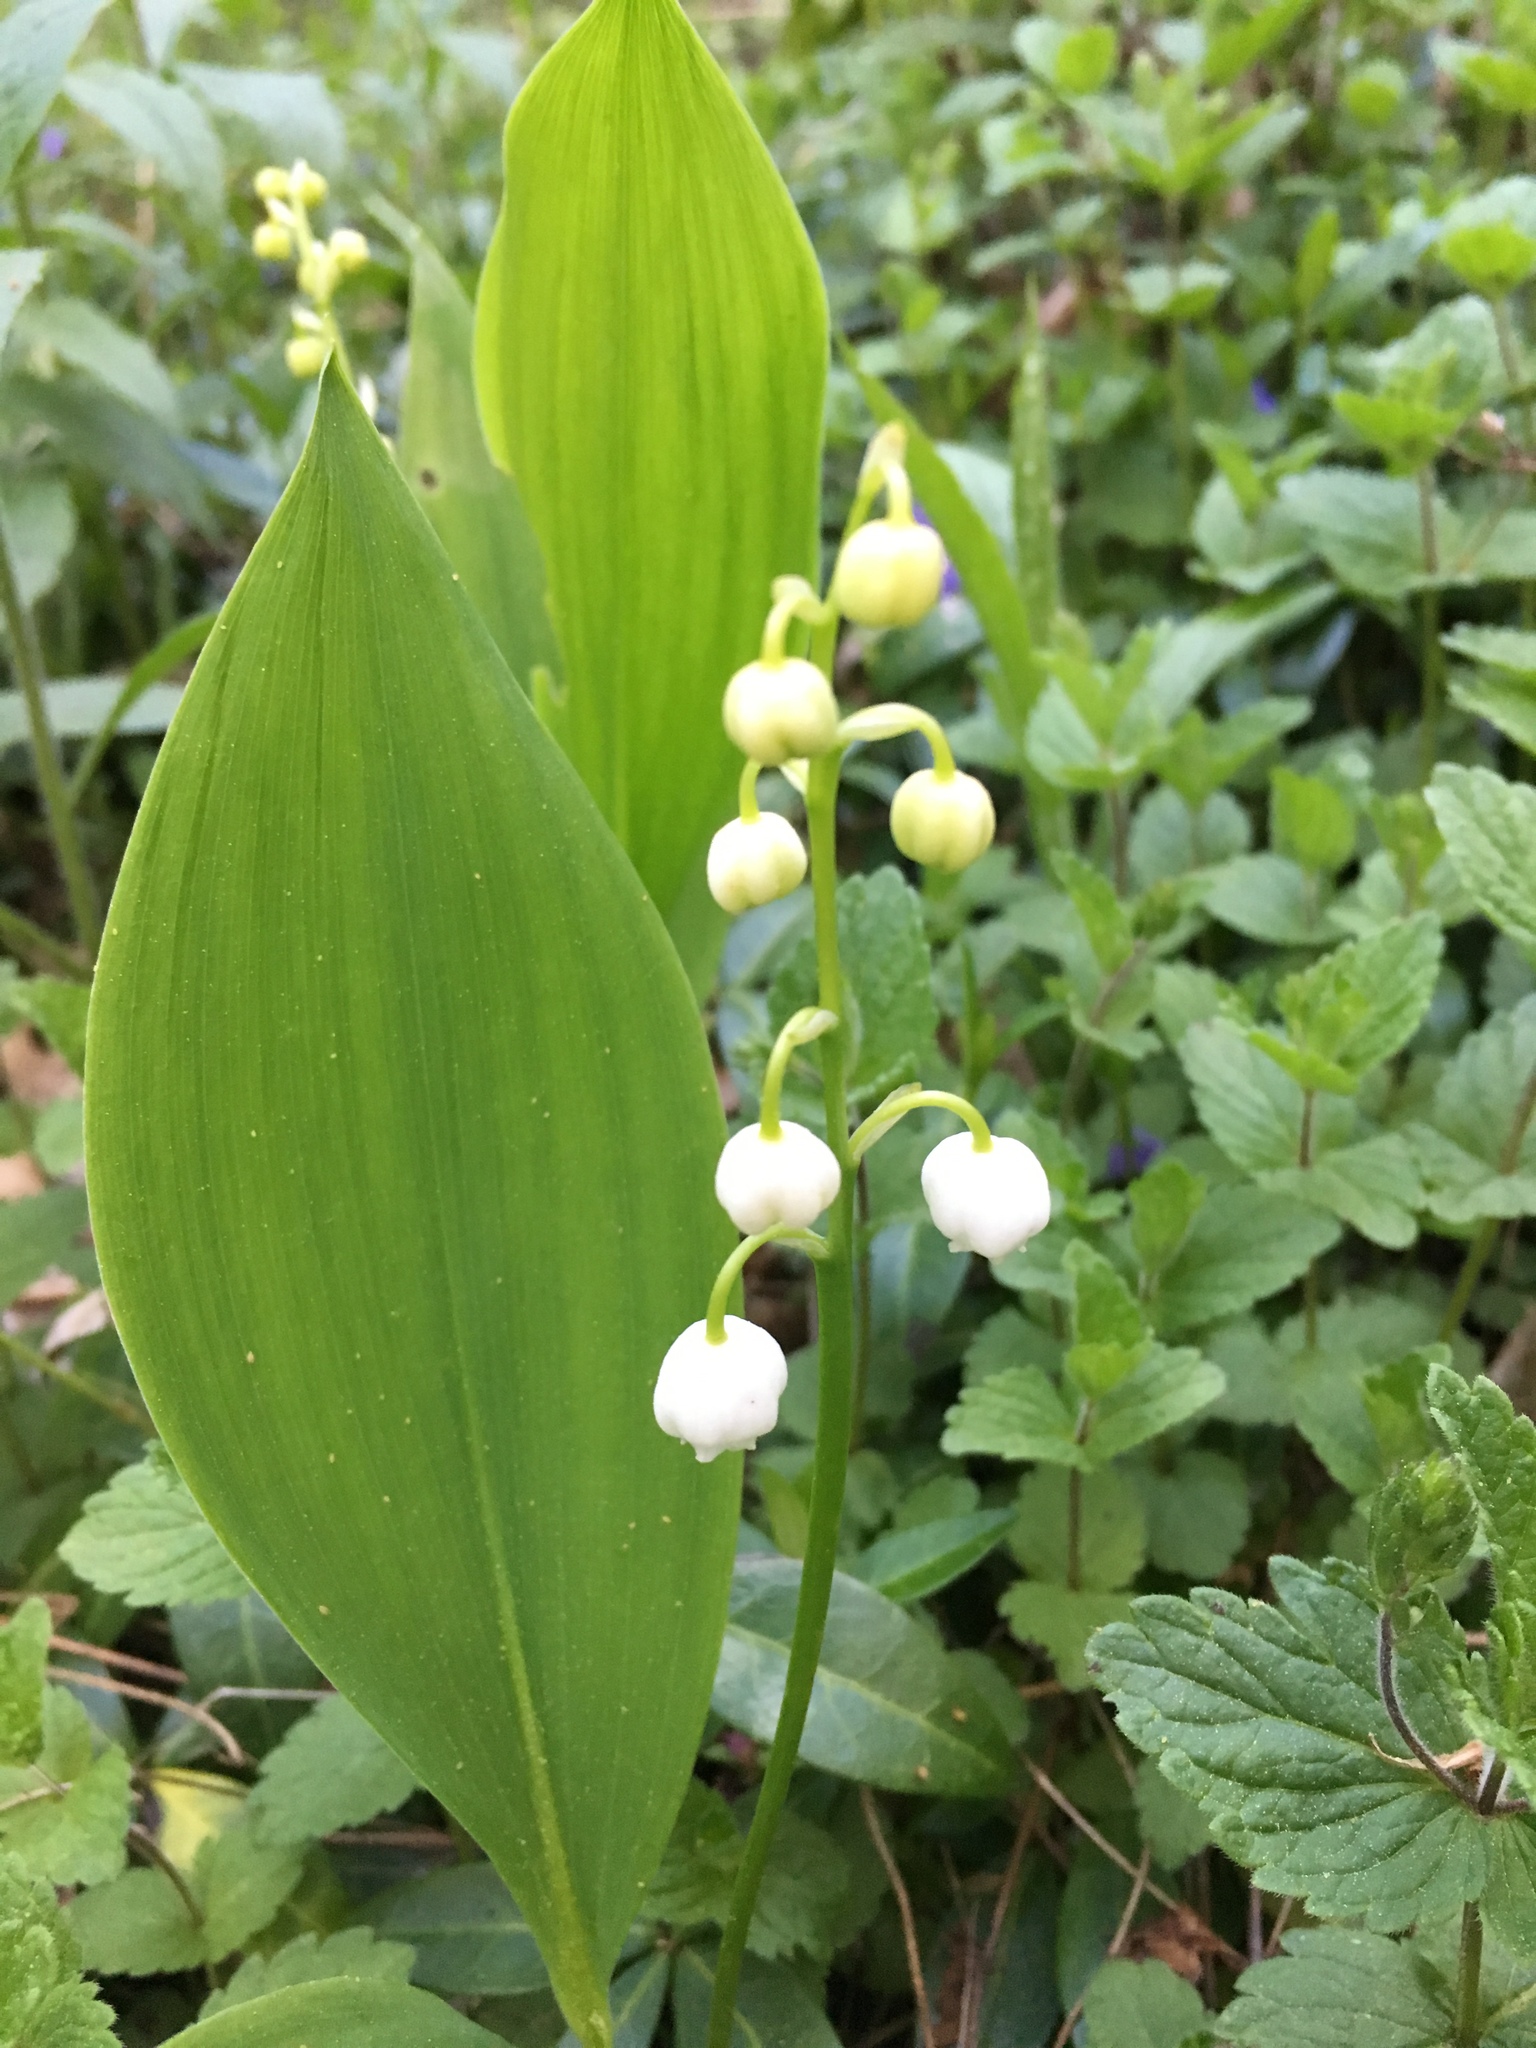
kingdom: Plantae
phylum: Tracheophyta
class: Liliopsida
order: Asparagales
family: Asparagaceae
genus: Convallaria
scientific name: Convallaria majalis
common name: Lily-of-the-valley
